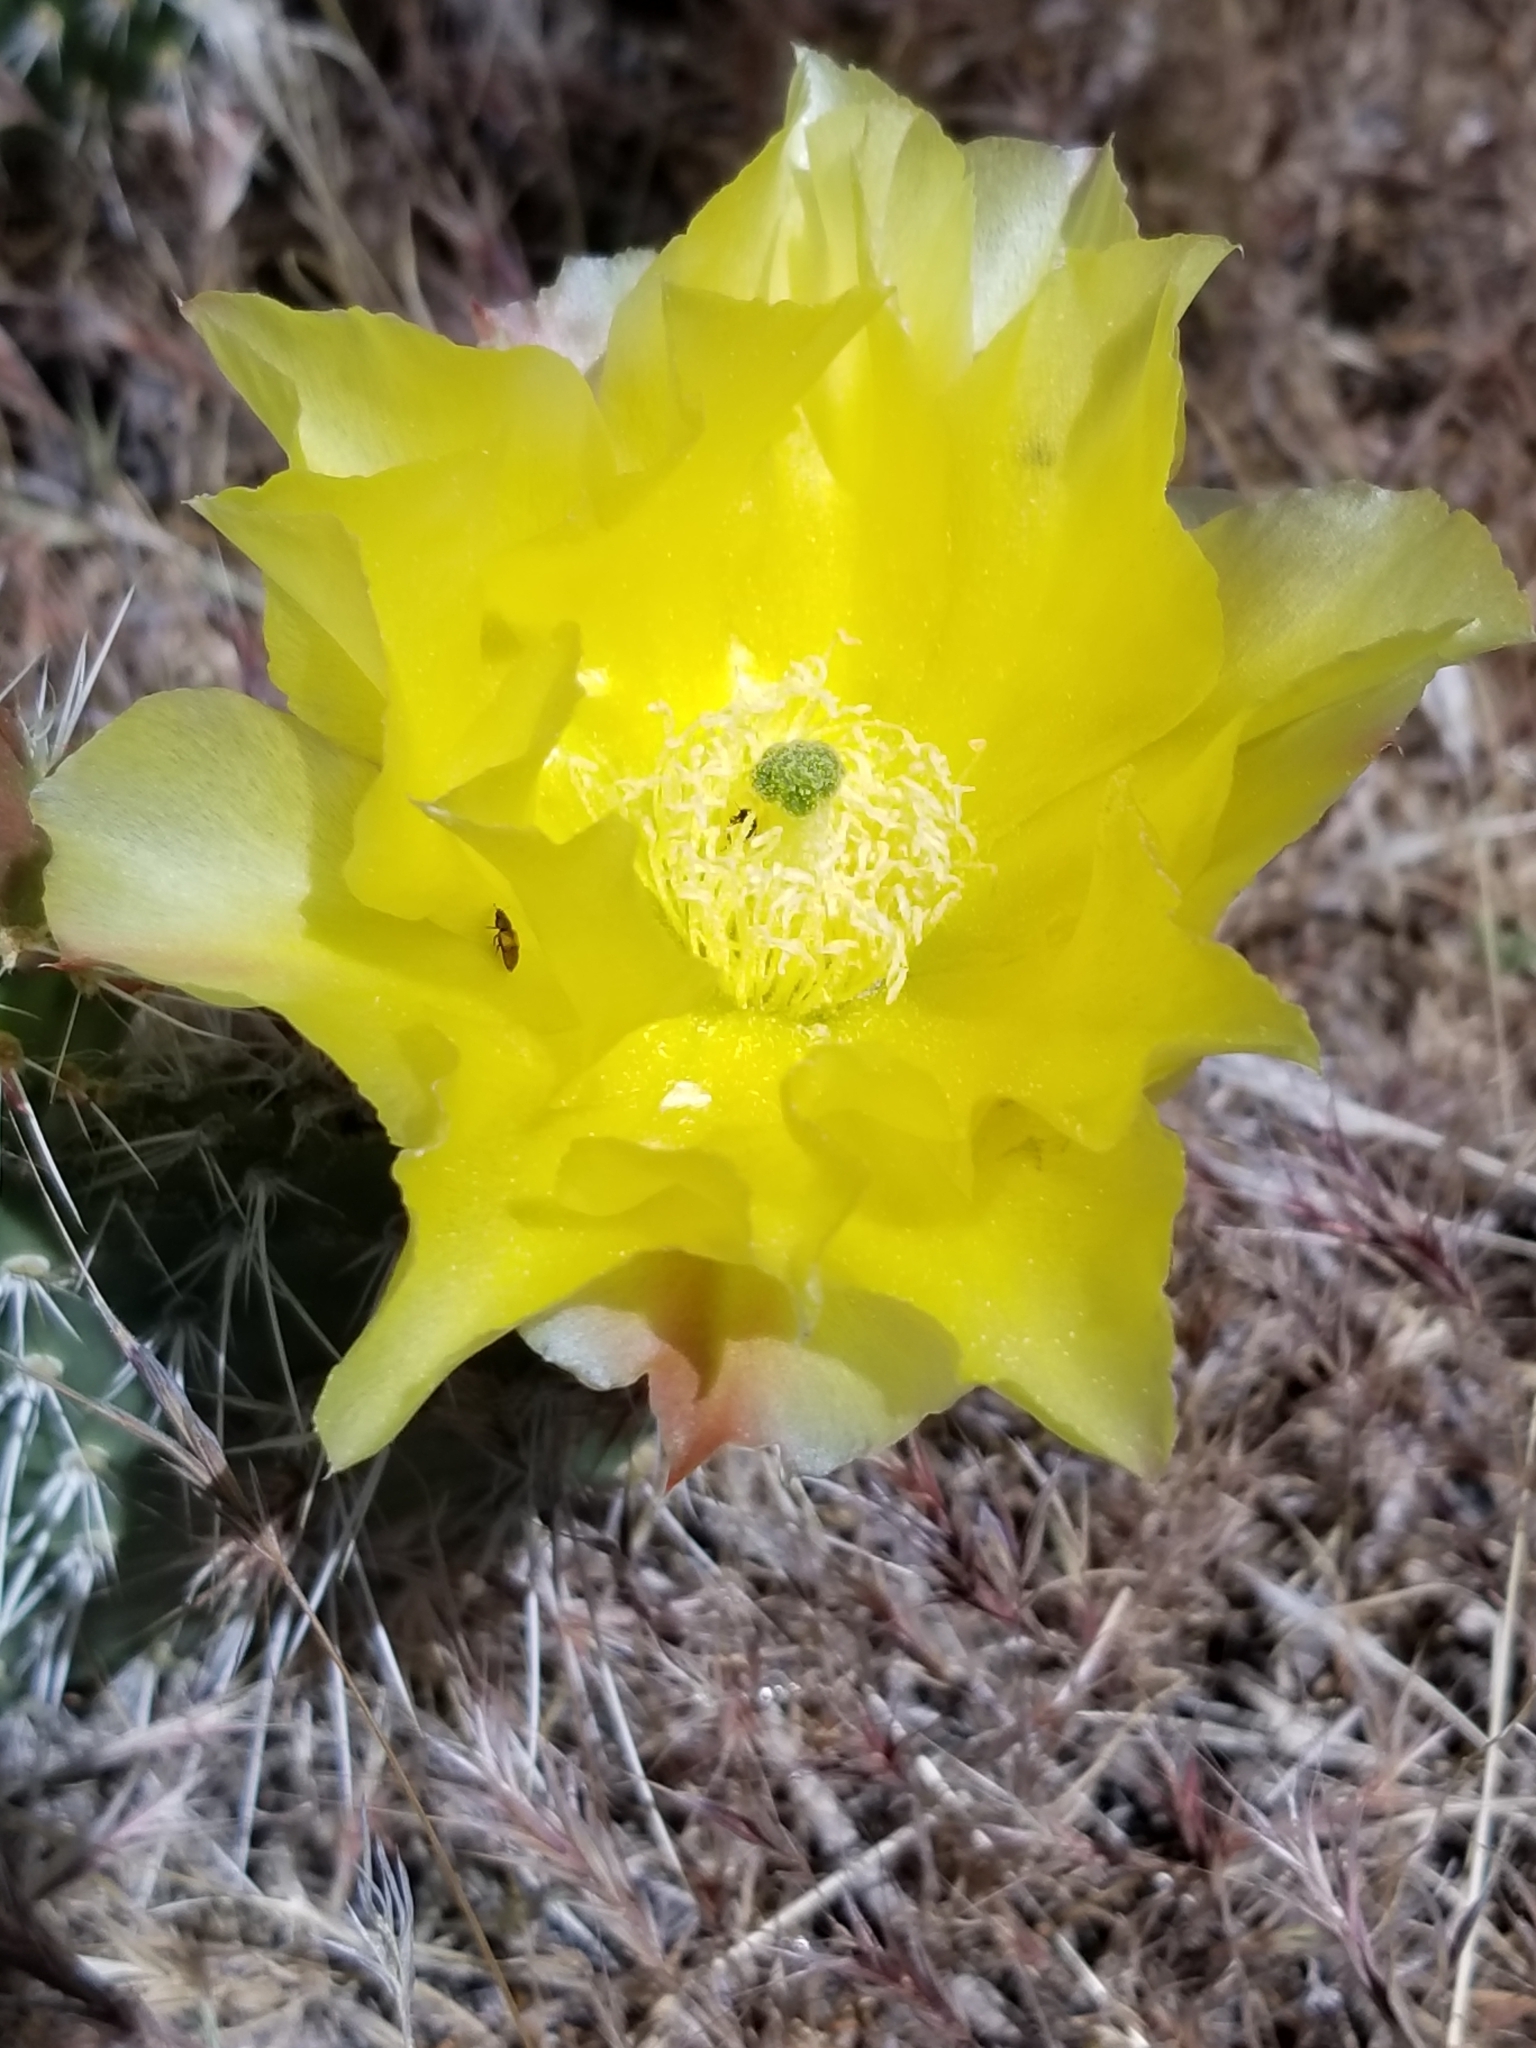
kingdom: Plantae
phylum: Tracheophyta
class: Magnoliopsida
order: Caryophyllales
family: Cactaceae
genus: Opuntia
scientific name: Opuntia polyacantha
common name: Plains prickly-pear
